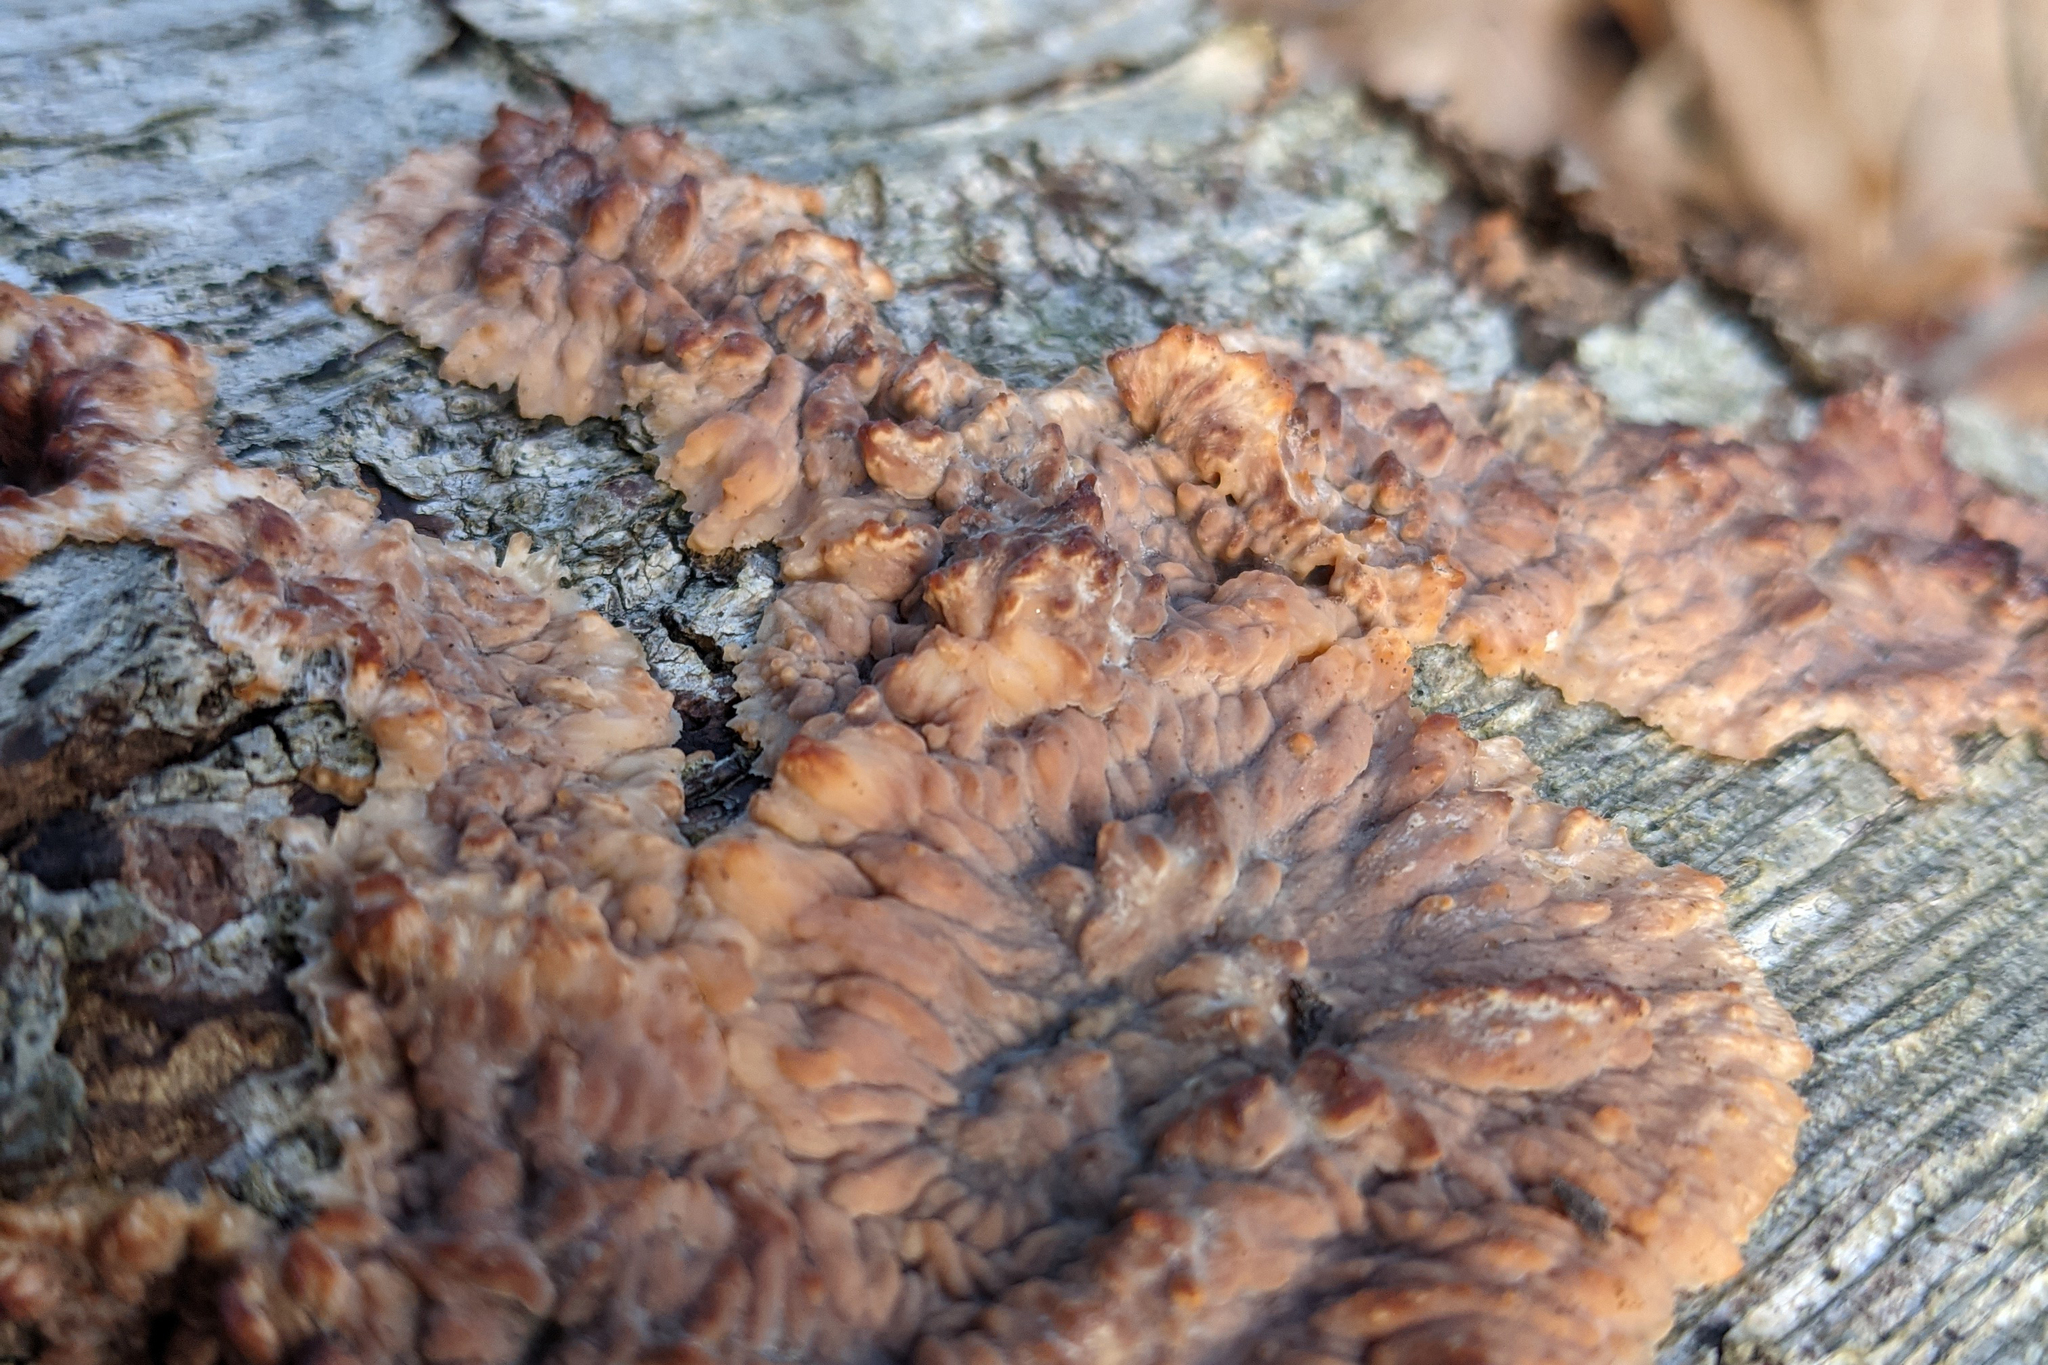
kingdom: Fungi
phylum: Basidiomycota
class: Agaricomycetes
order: Polyporales
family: Meruliaceae
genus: Phlebia
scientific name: Phlebia radiata
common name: Wrinkled crust
